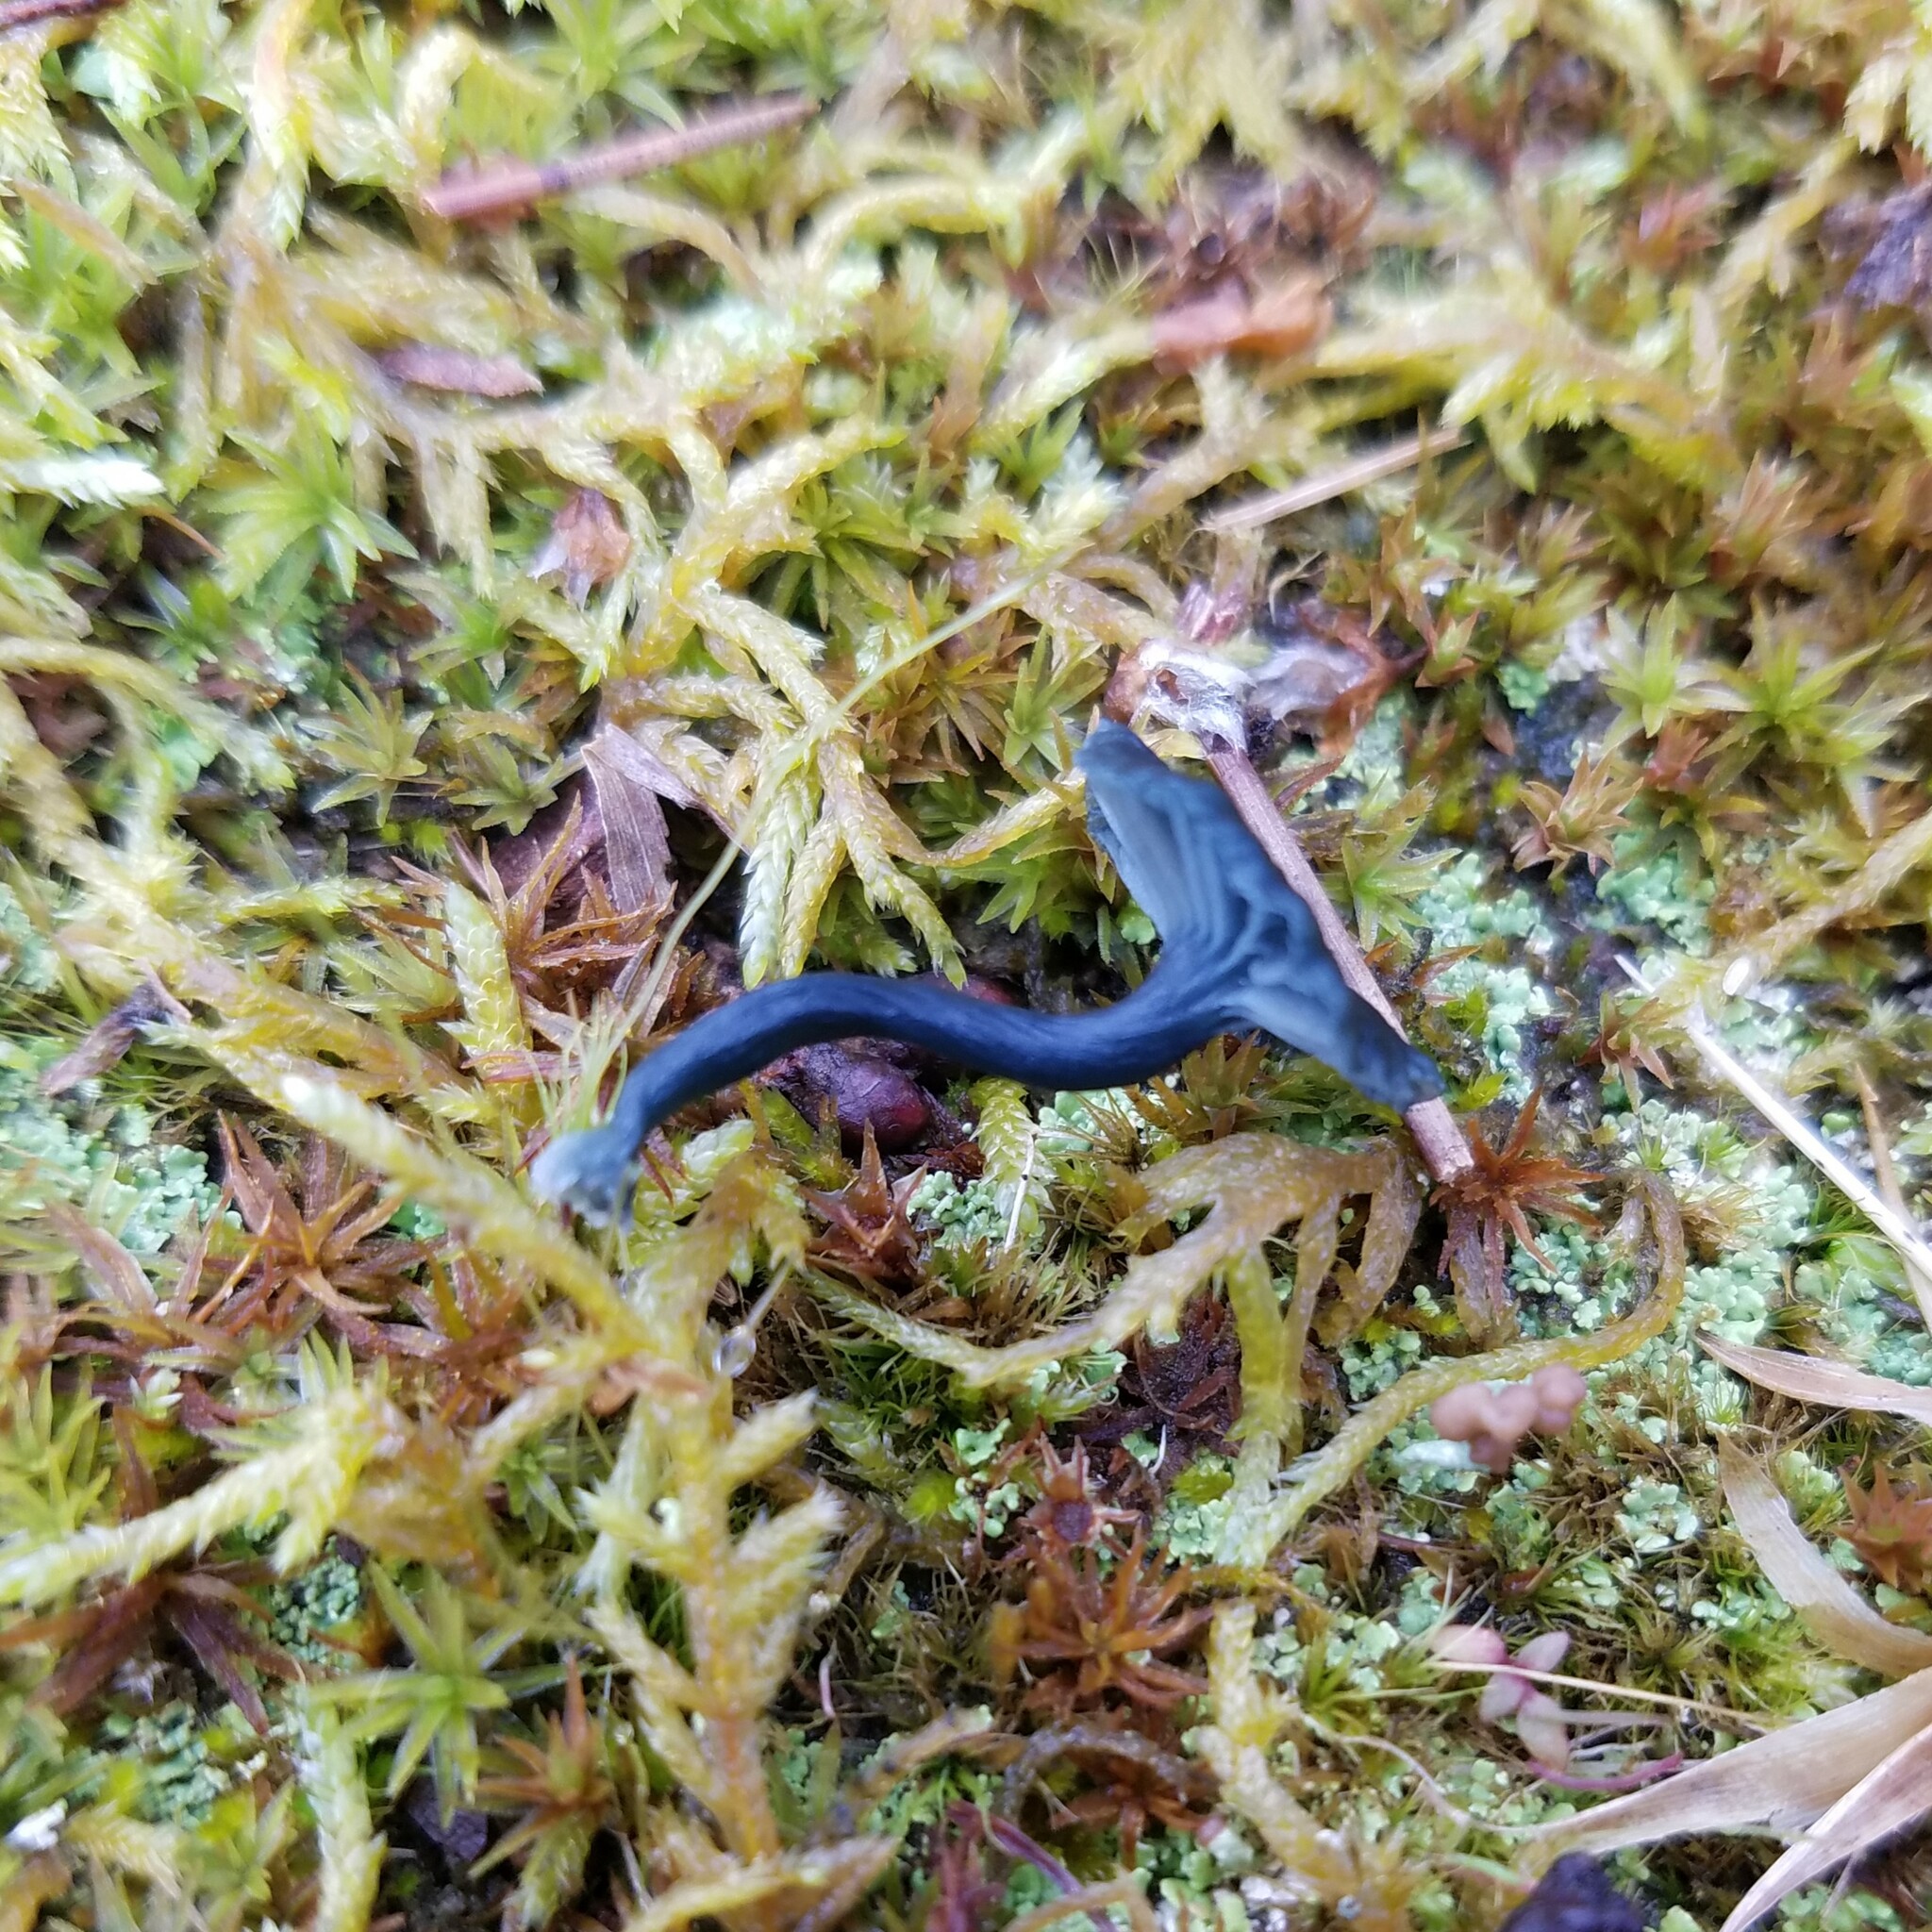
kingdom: Fungi
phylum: Basidiomycota
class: Agaricomycetes
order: Agaricales
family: Hygrophoraceae
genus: Arrhenia
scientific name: Arrhenia chlorocyanea
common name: Verdigris navel
